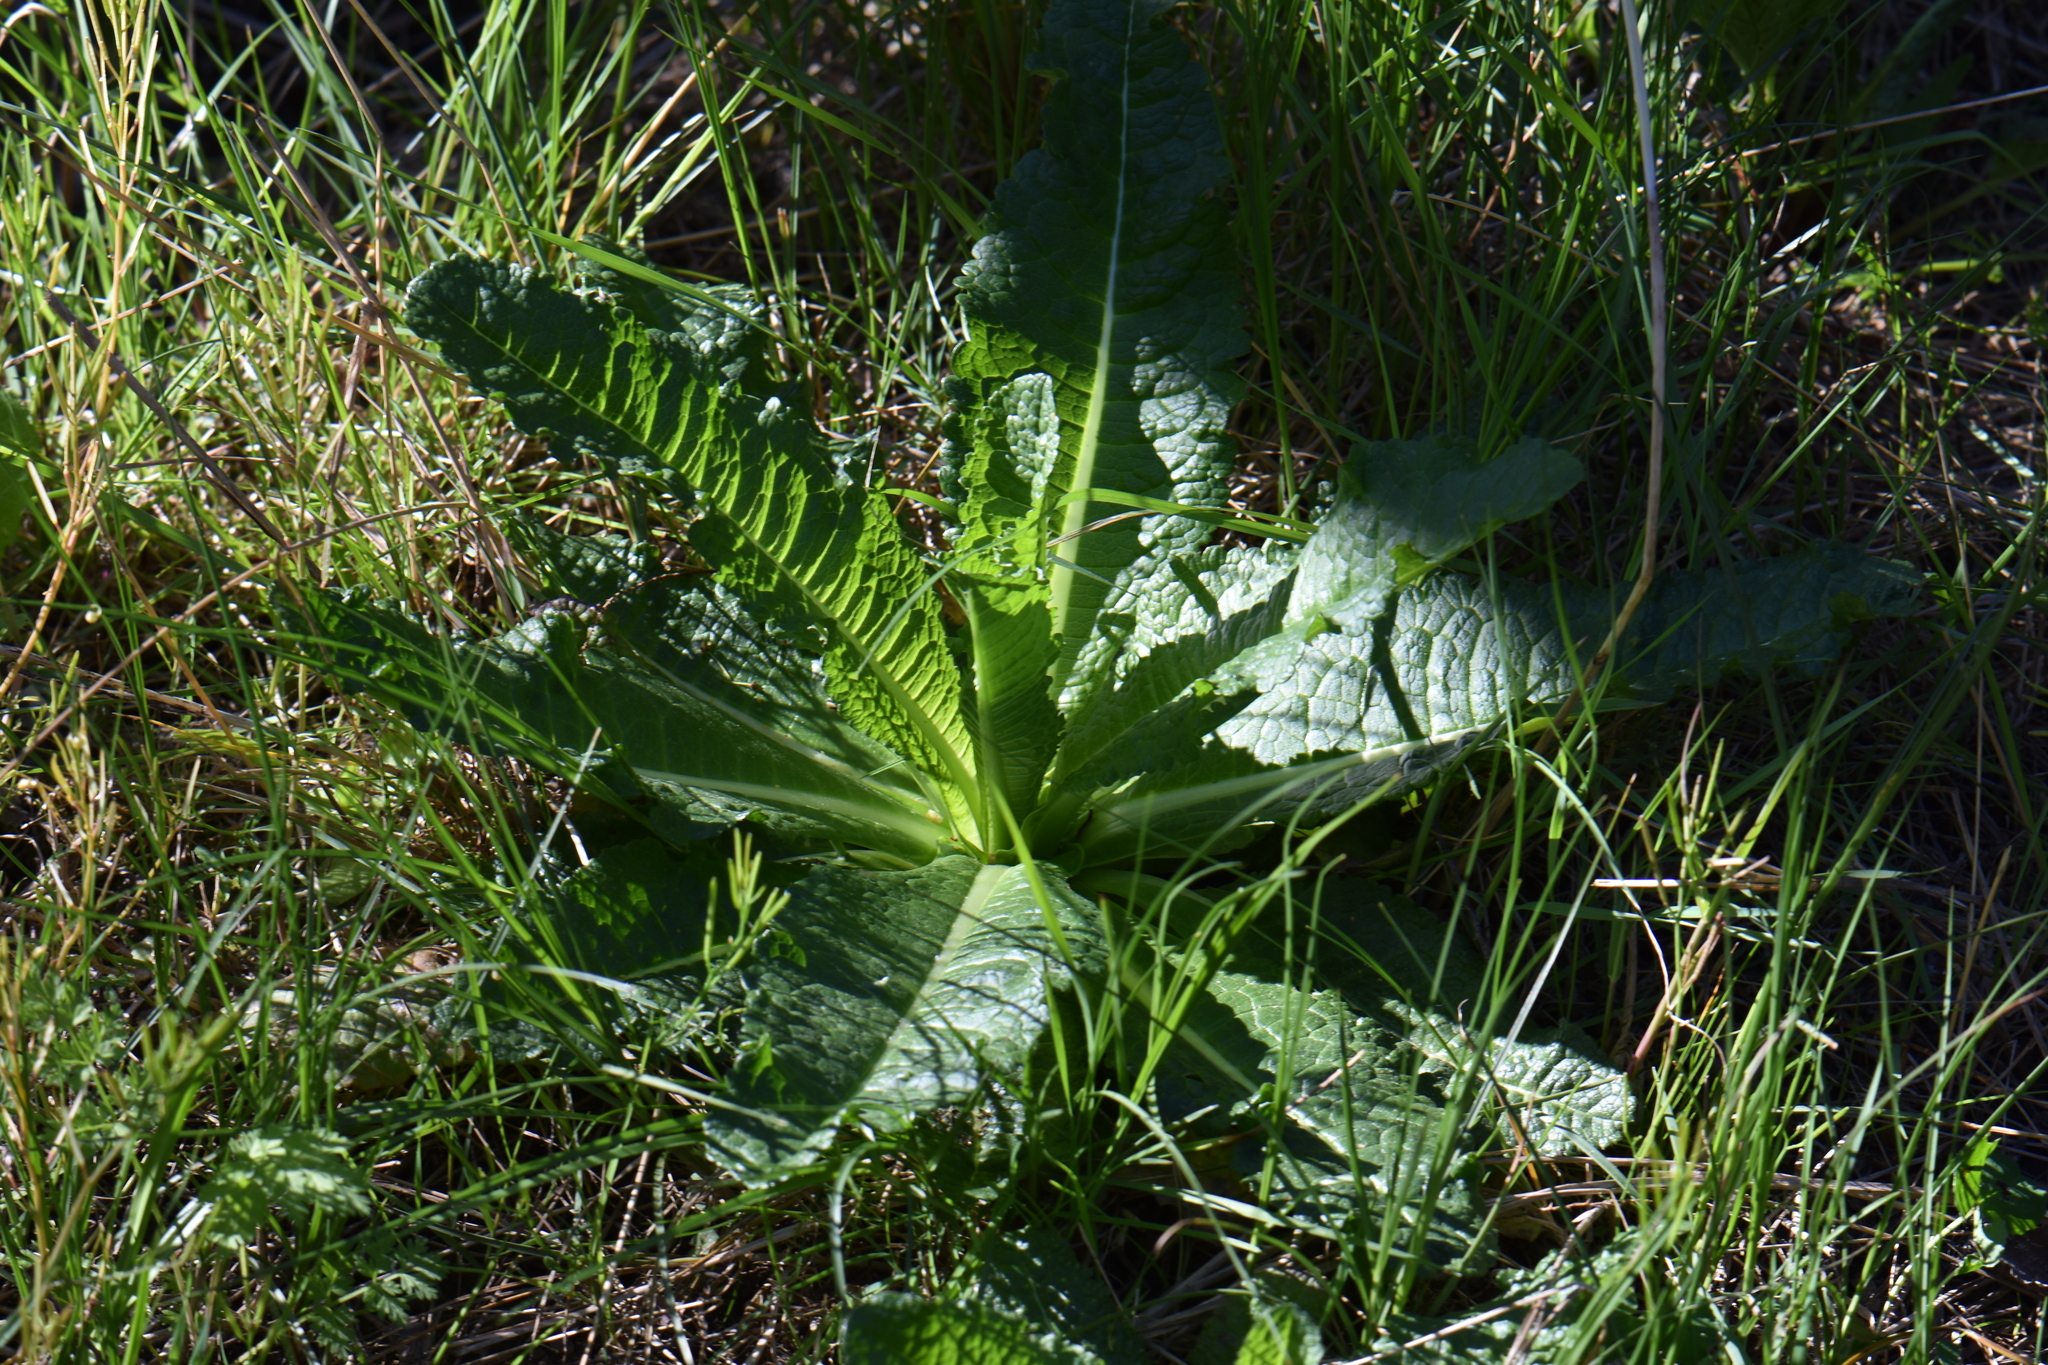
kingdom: Plantae
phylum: Tracheophyta
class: Magnoliopsida
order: Dipsacales
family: Caprifoliaceae
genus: Dipsacus
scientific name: Dipsacus fullonum
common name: Teasel
